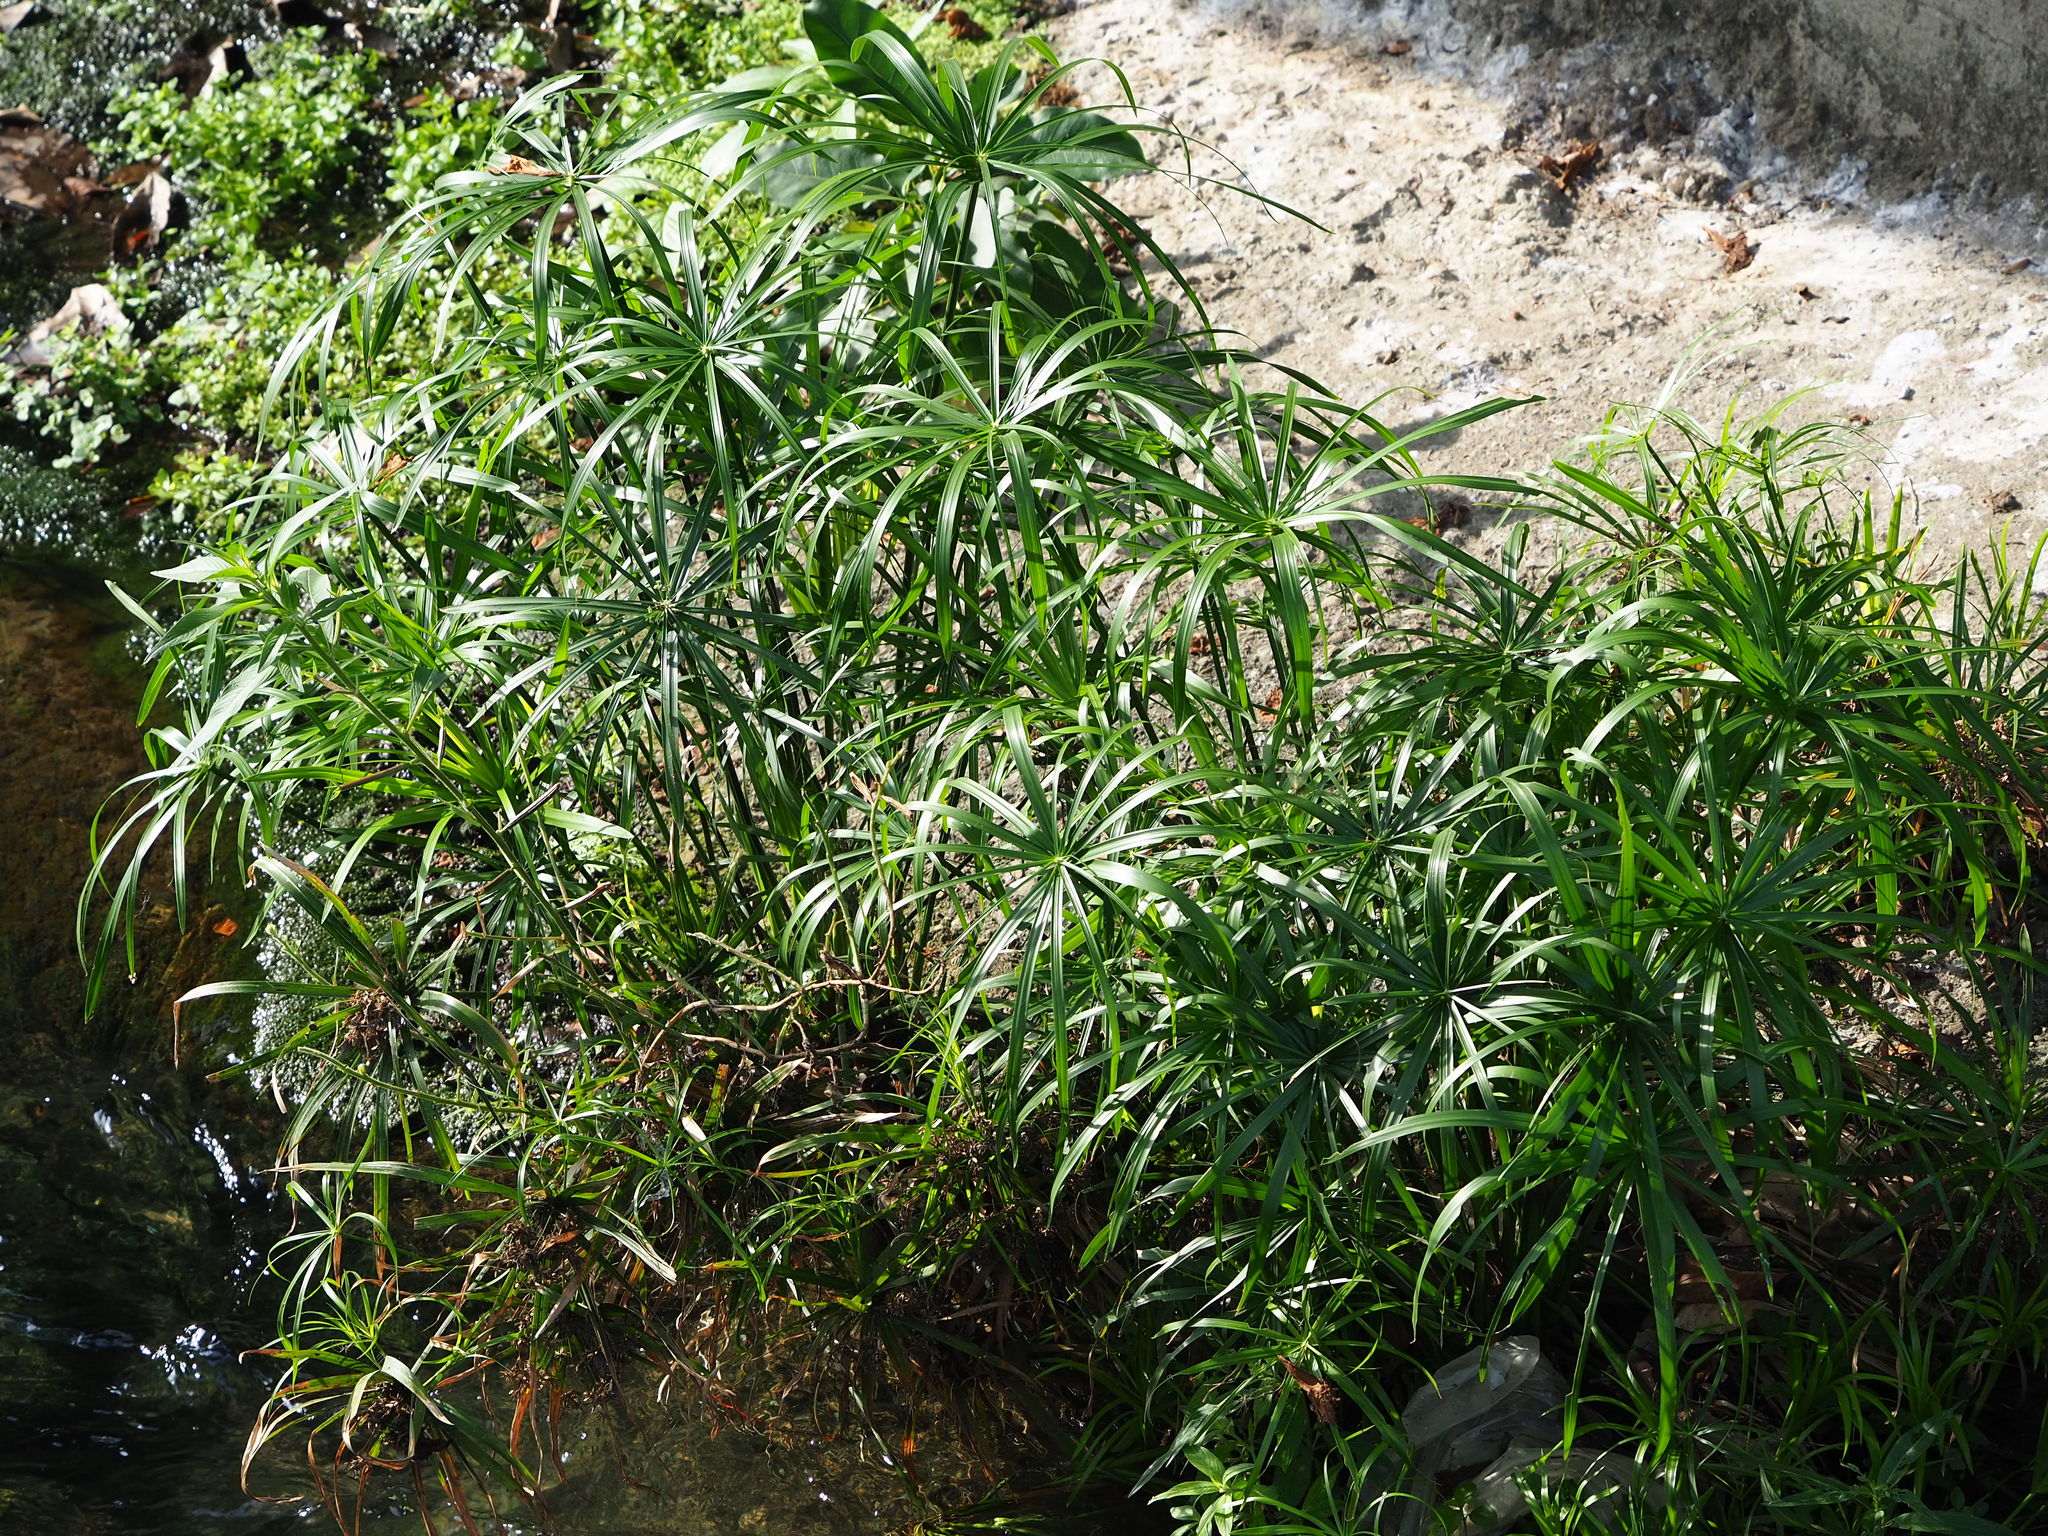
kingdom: Plantae
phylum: Tracheophyta
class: Liliopsida
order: Poales
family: Cyperaceae
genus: Cyperus
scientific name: Cyperus alternifolius
